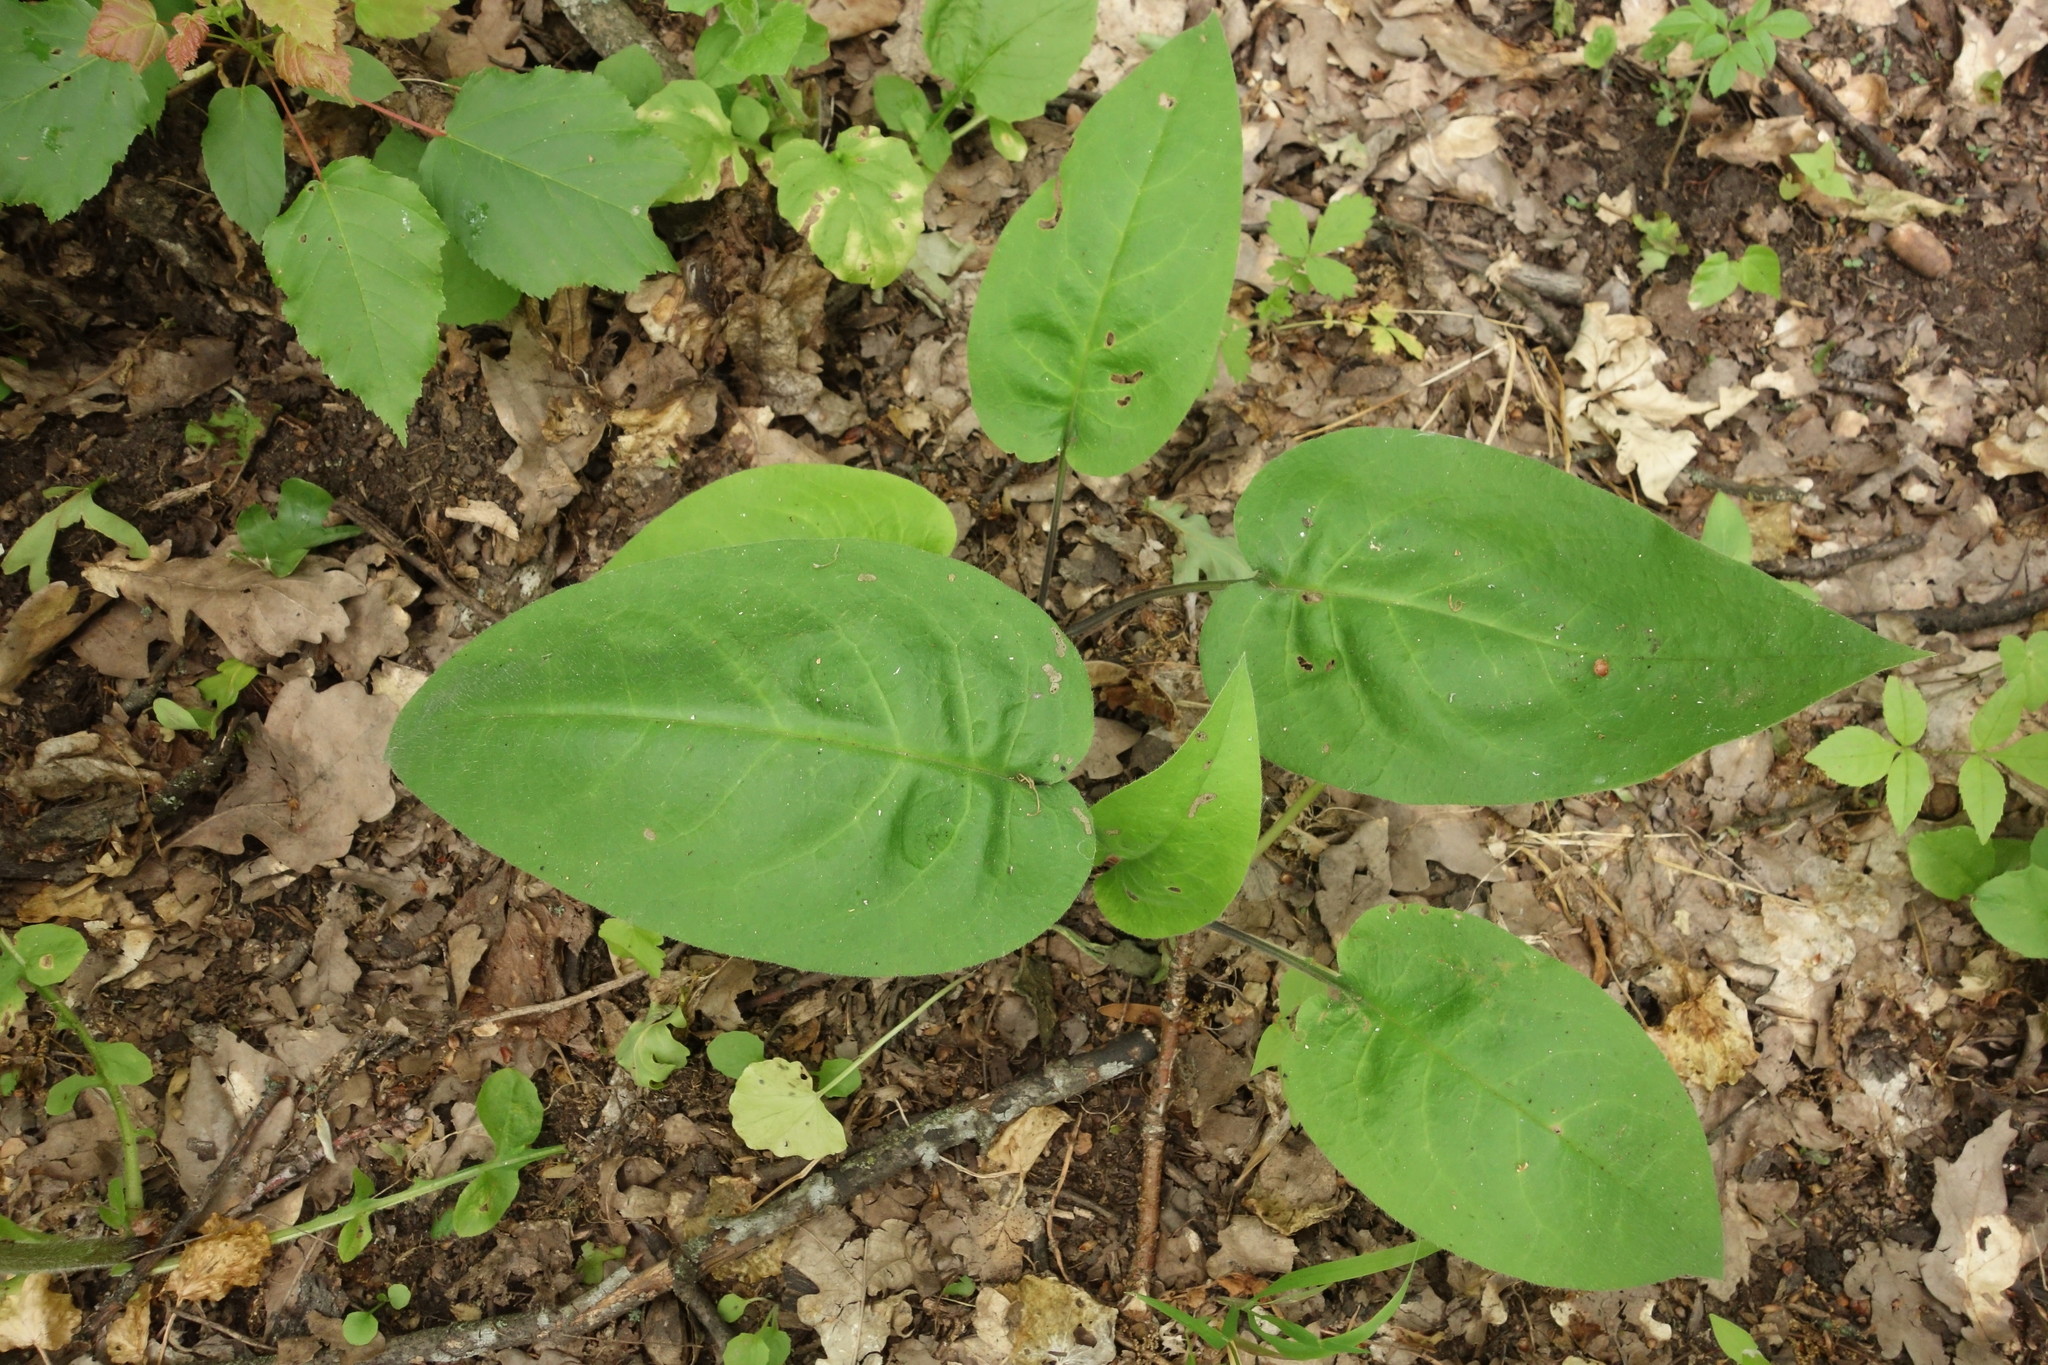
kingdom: Plantae
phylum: Tracheophyta
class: Magnoliopsida
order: Boraginales
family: Boraginaceae
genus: Pulmonaria
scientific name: Pulmonaria obscura
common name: Suffolk lungwort
